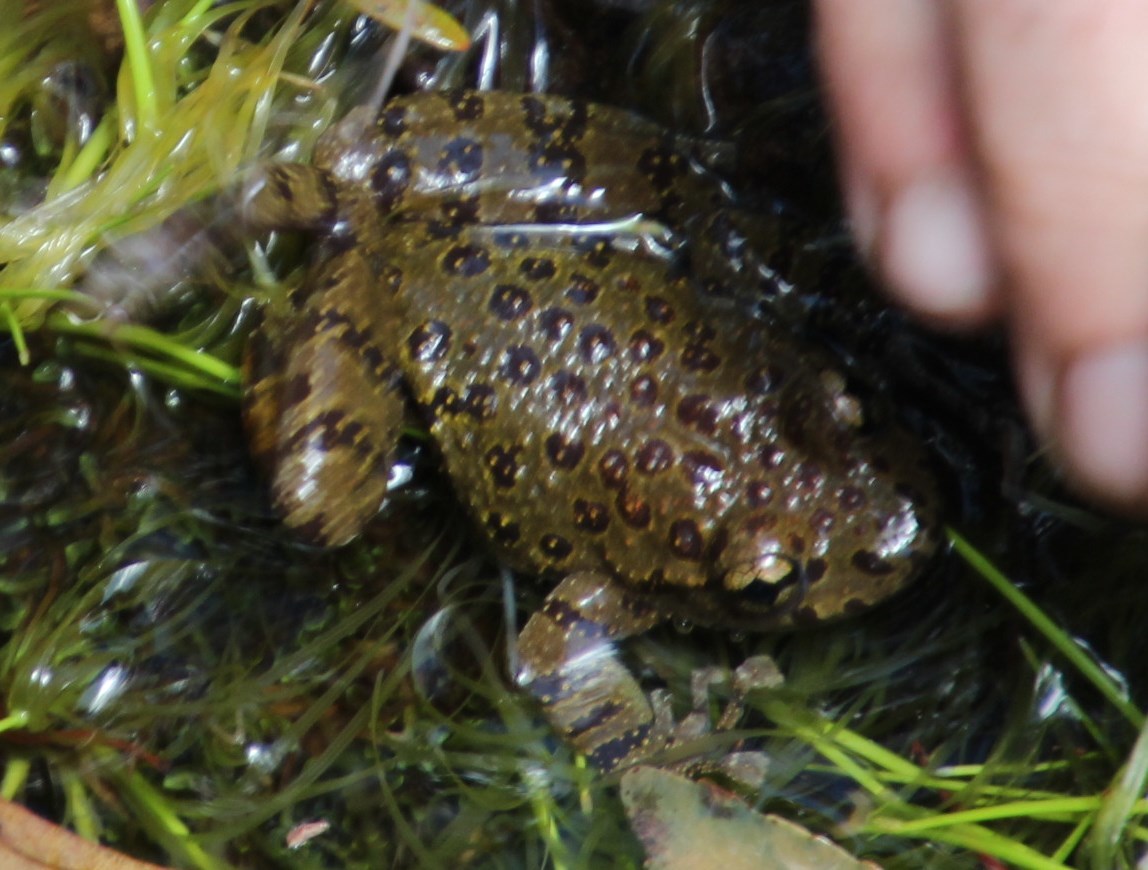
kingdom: Animalia
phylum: Chordata
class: Amphibia
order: Anura
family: Heleophrynidae
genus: Heleophryne
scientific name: Heleophryne depressa
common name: Cederberg ghost frog
